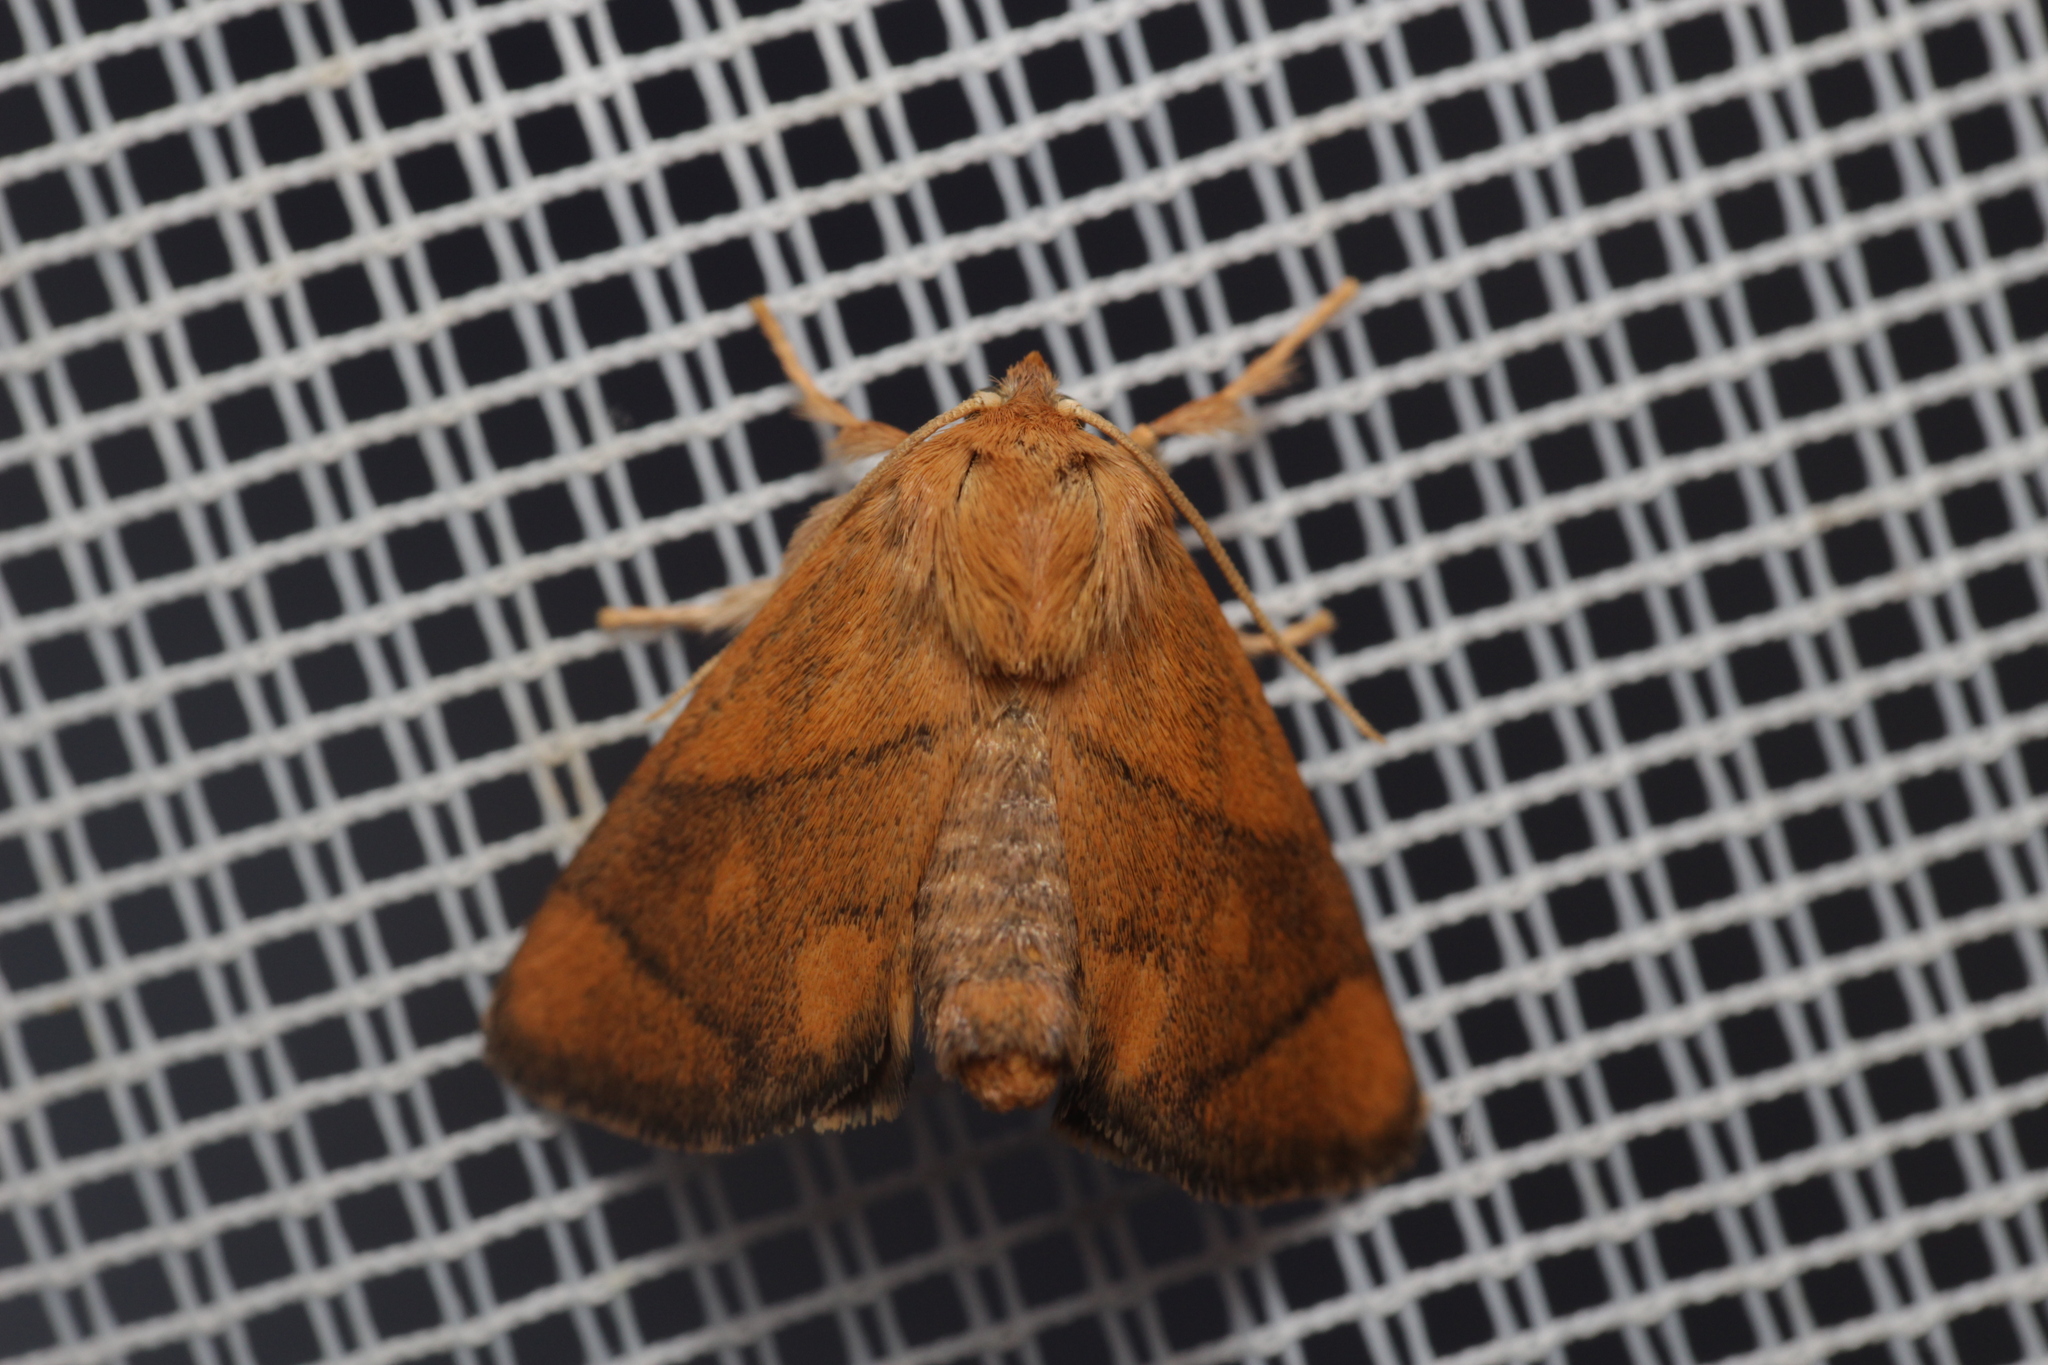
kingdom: Animalia
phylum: Arthropoda
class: Insecta
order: Lepidoptera
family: Limacodidae
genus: Apoda
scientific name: Apoda limacodes
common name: Festoon
